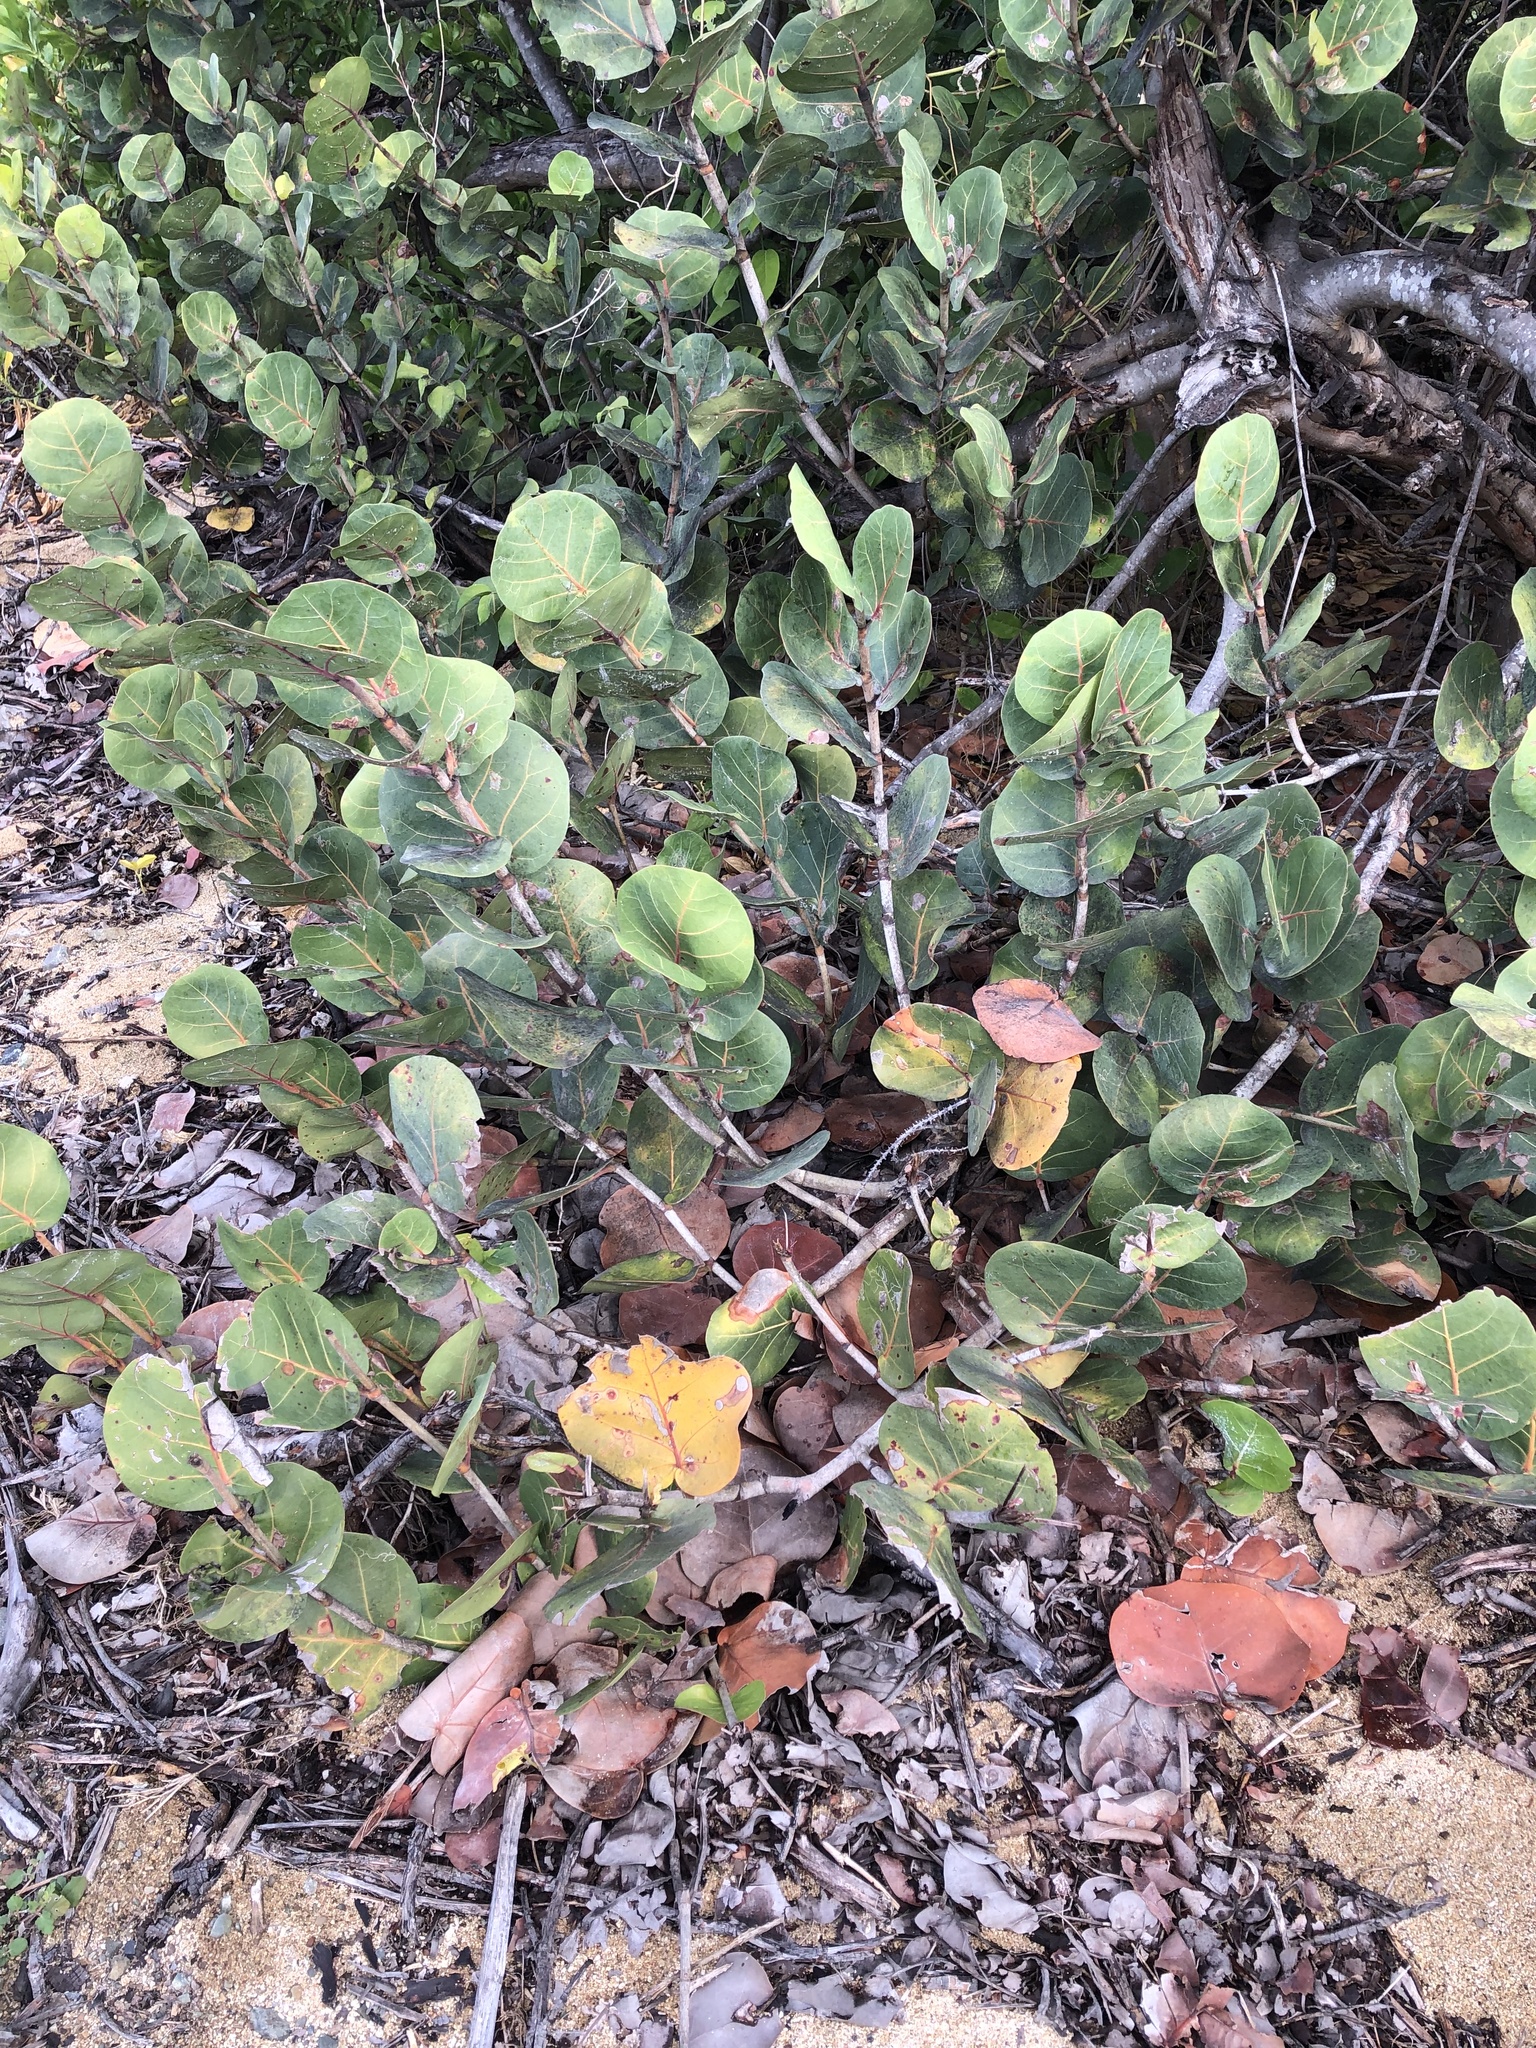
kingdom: Plantae
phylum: Tracheophyta
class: Magnoliopsida
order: Caryophyllales
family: Polygonaceae
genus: Coccoloba
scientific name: Coccoloba uvifera
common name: Seagrape
